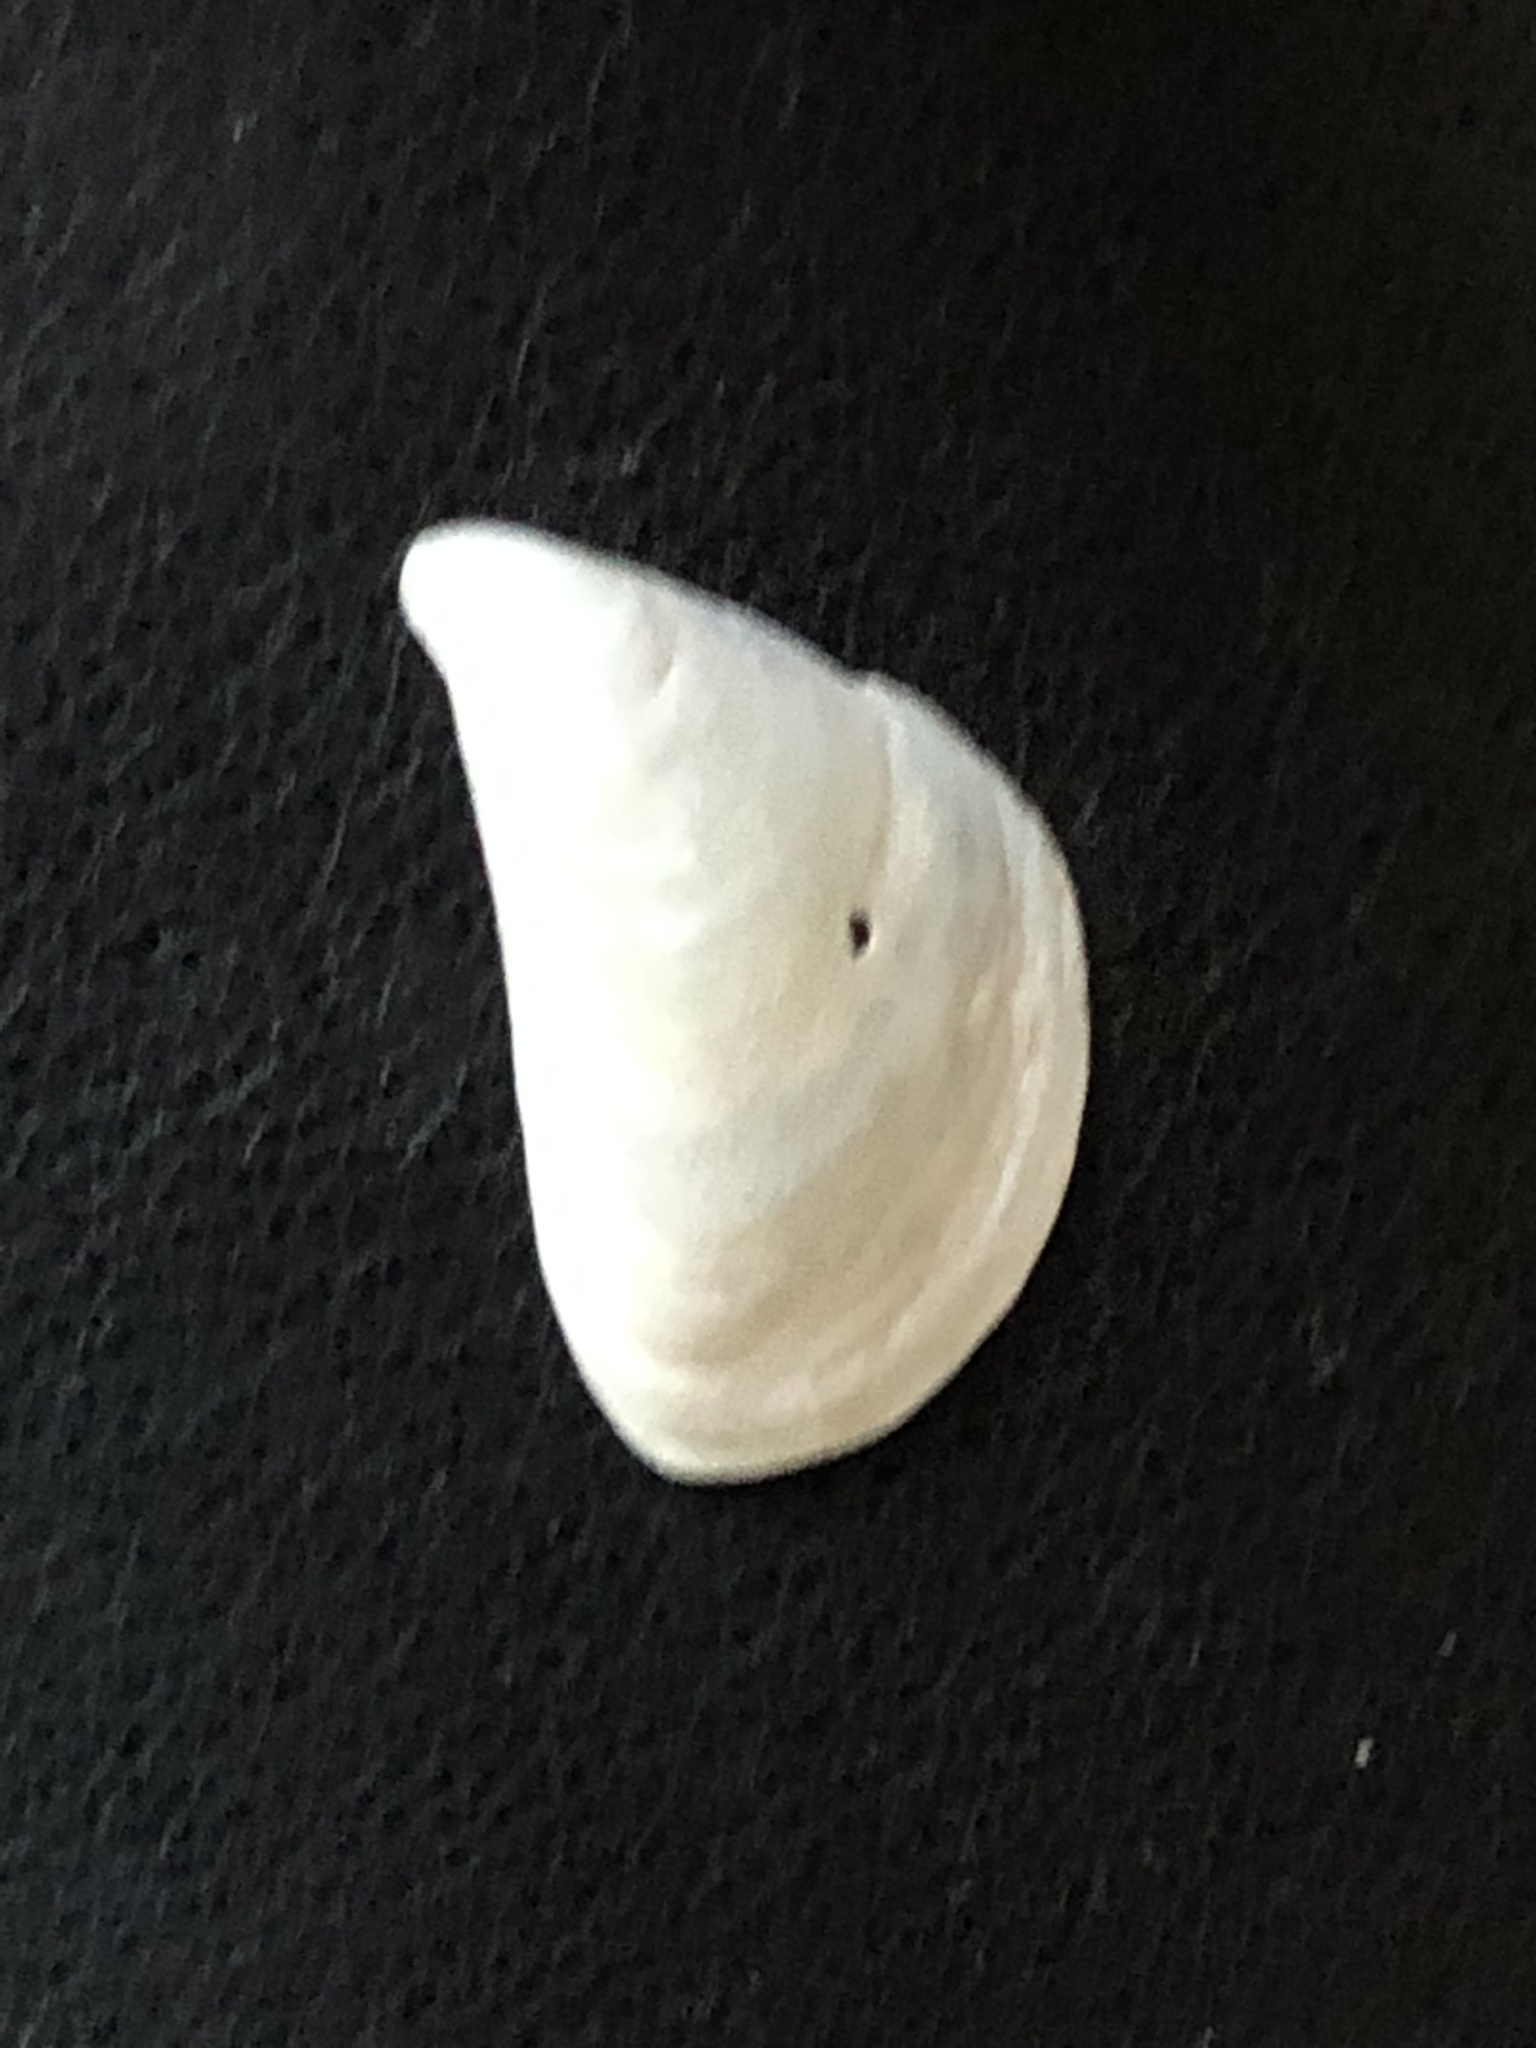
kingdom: Animalia
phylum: Mollusca
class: Bivalvia
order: Myida
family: Dreissenidae
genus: Dreissena
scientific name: Dreissena bugensis
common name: Quagga mussel
